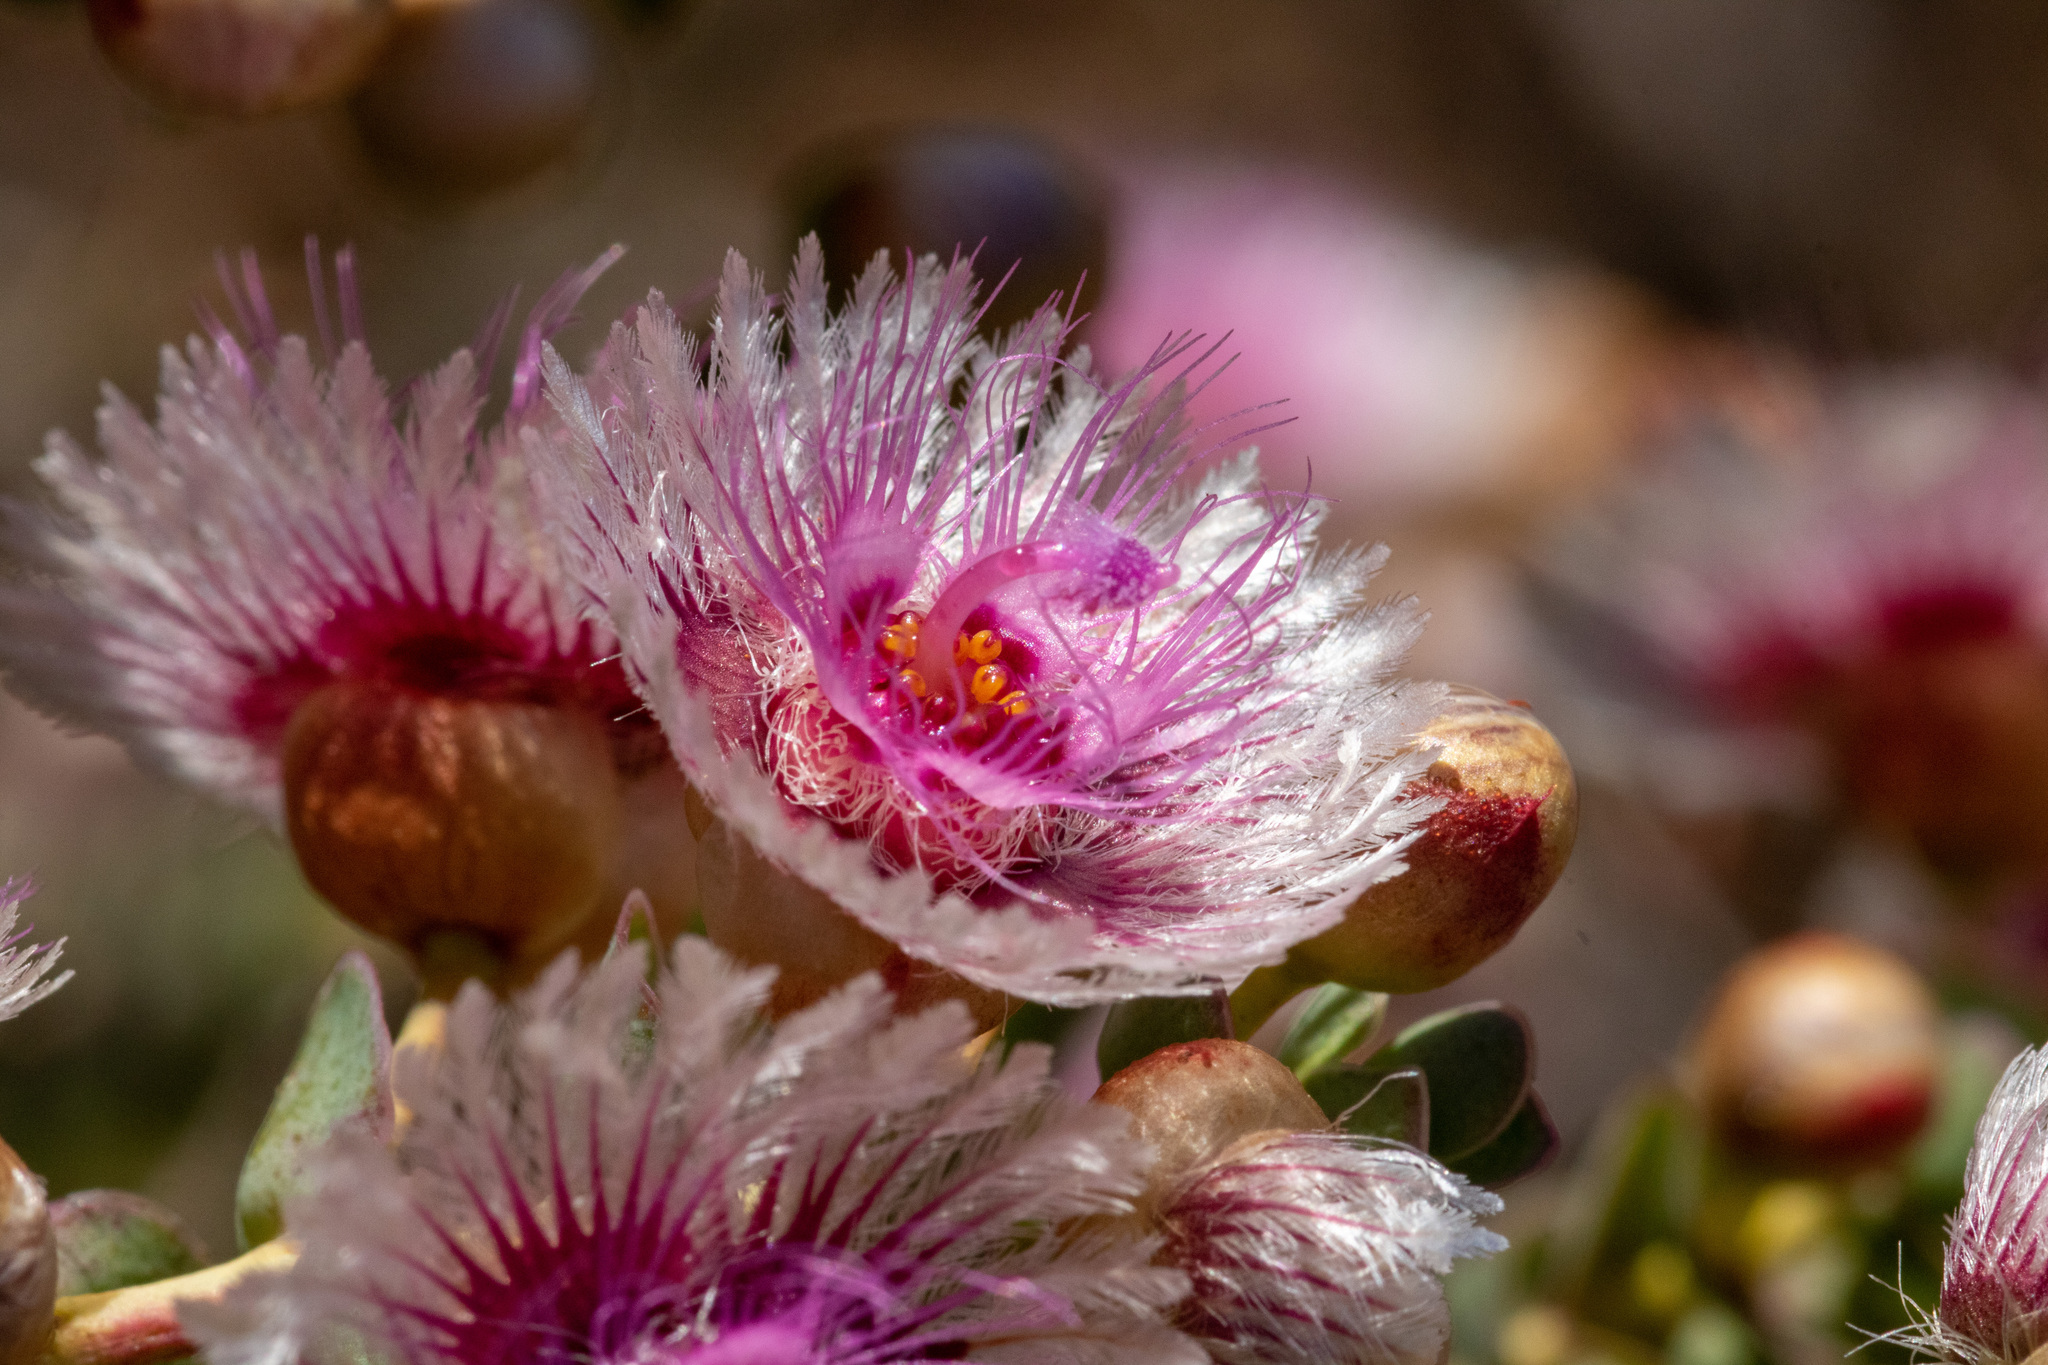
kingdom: Plantae
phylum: Tracheophyta
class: Magnoliopsida
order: Myrtales
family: Myrtaceae
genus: Verticordia
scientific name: Verticordia oculata
